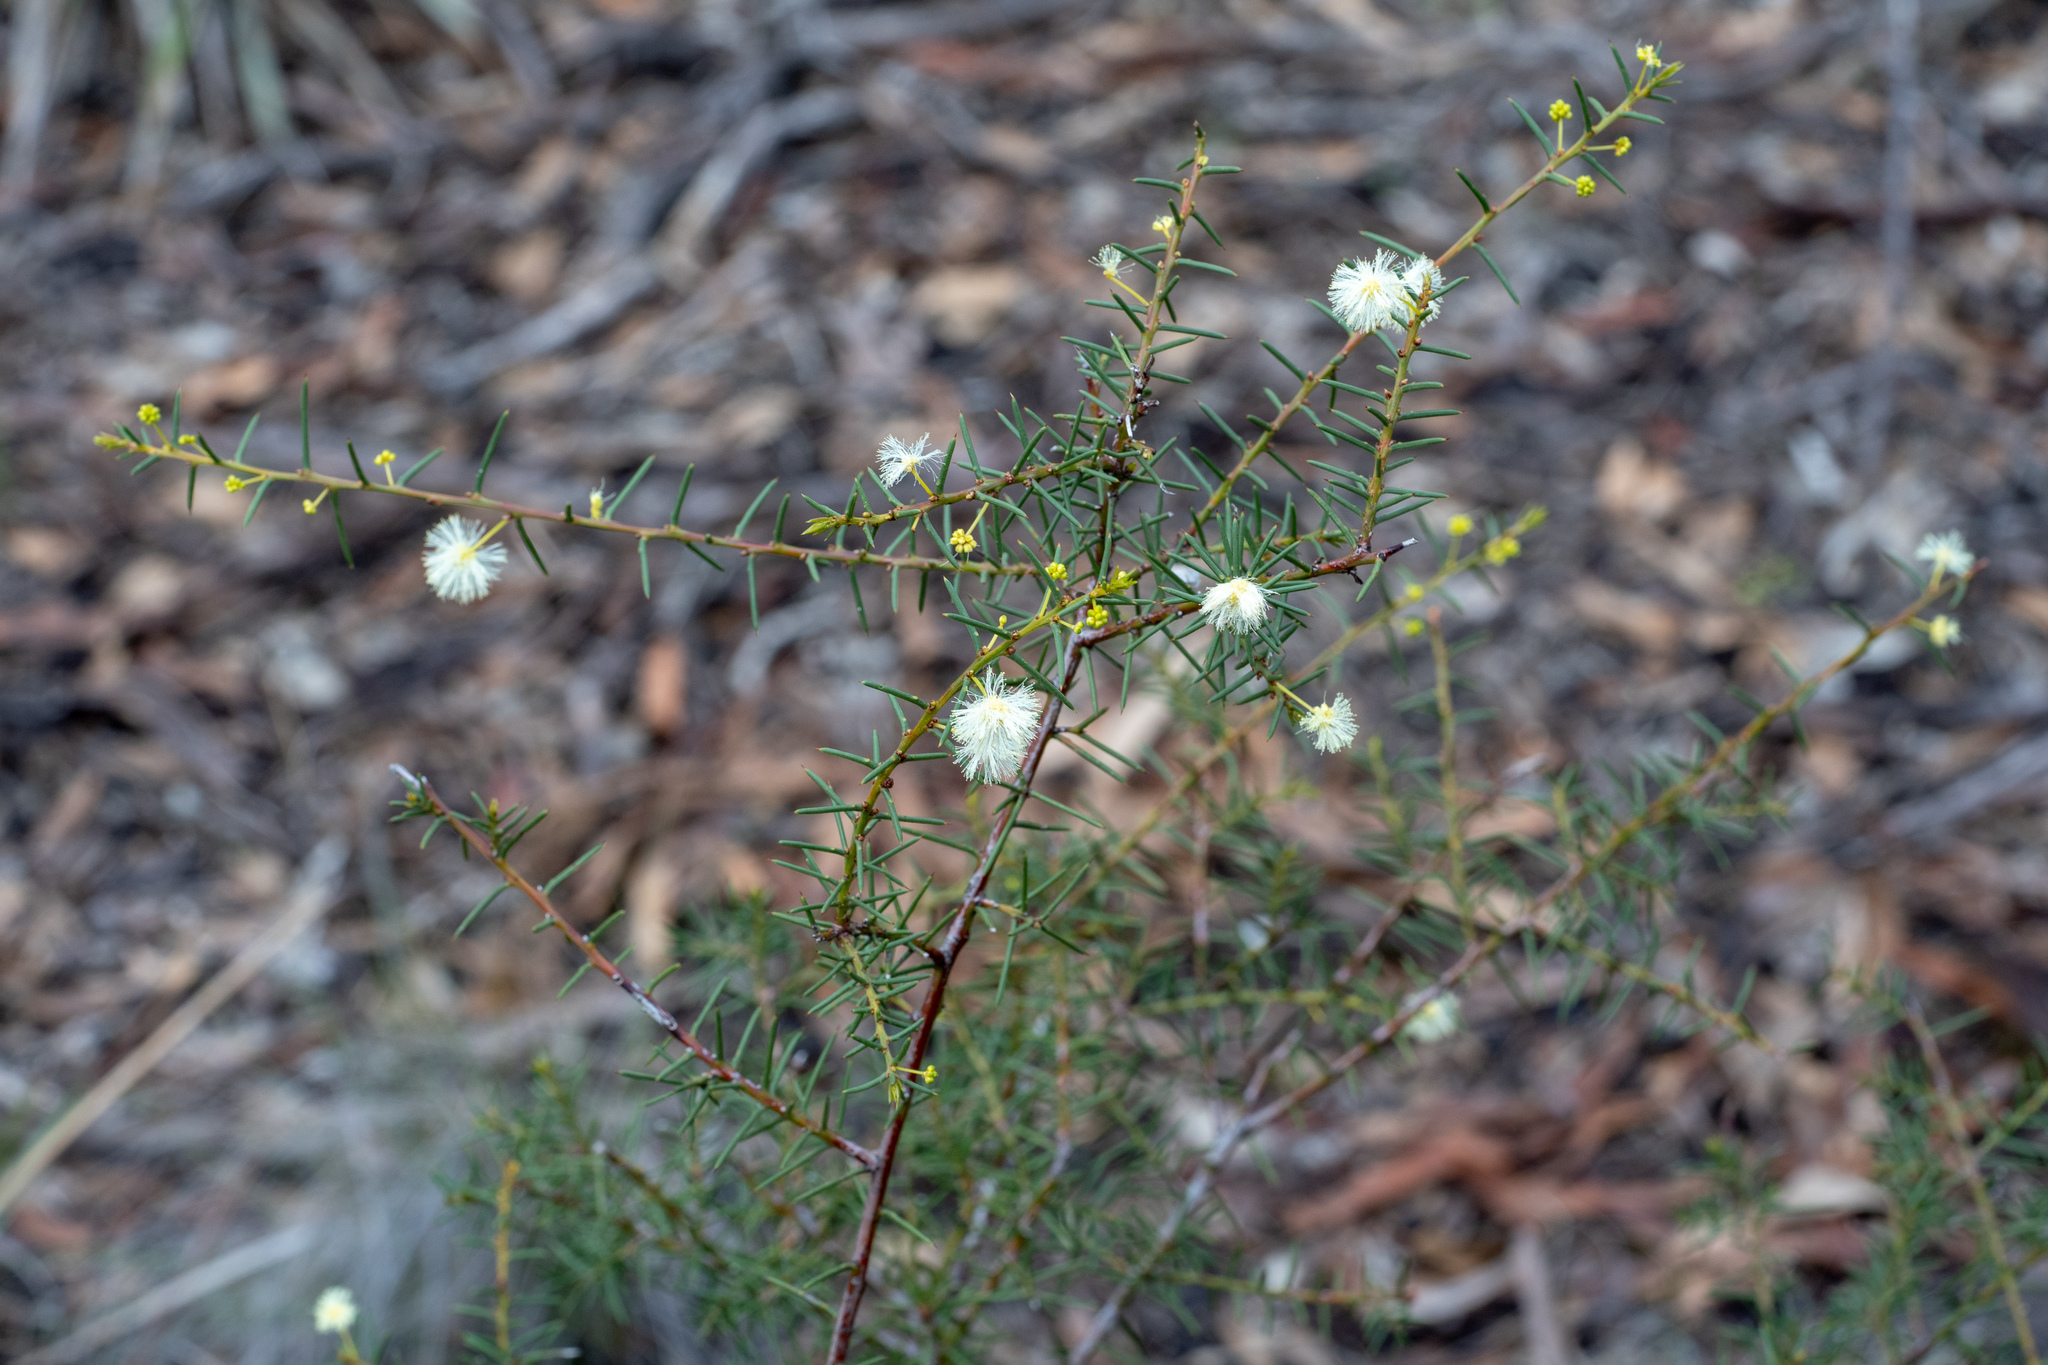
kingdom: Plantae
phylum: Tracheophyta
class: Magnoliopsida
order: Fabales
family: Fabaceae
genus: Acacia
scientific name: Acacia genistifolia
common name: Early wattle
